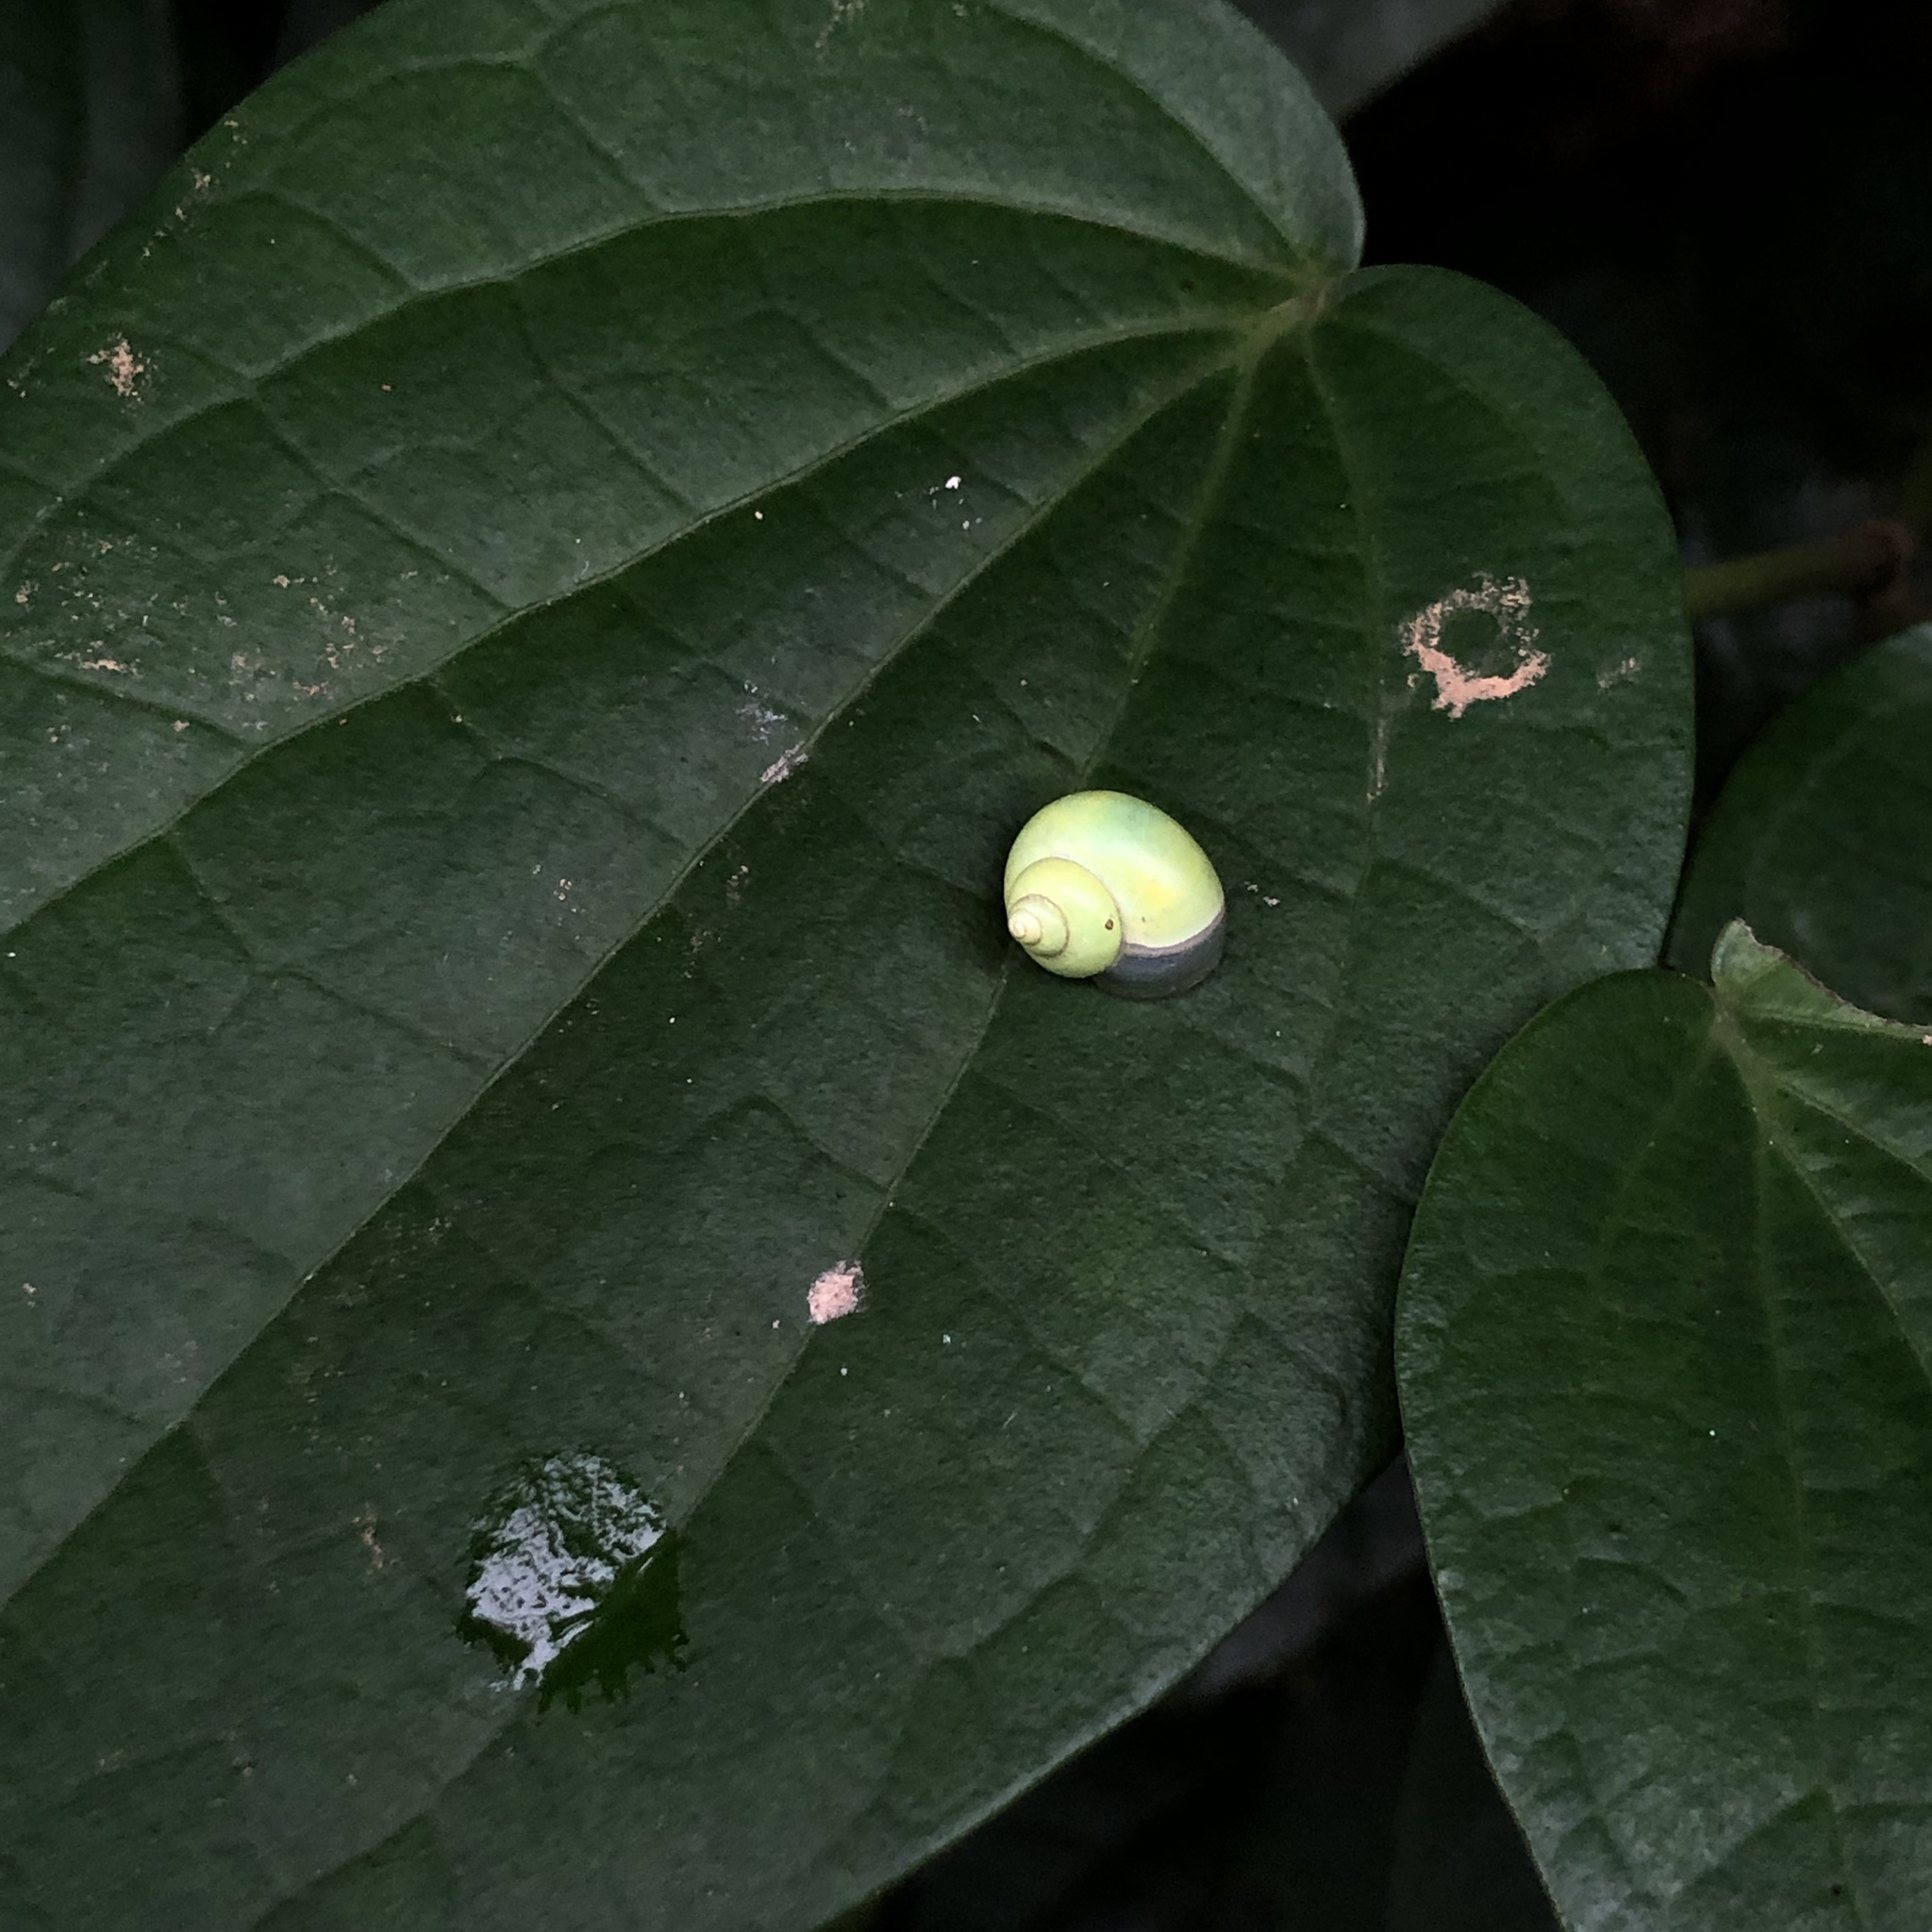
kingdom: Animalia
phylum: Mollusca
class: Gastropoda
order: Architaenioglossa
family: Cyclophoridae
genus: Leptopoma
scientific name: Leptopoma nitidum
